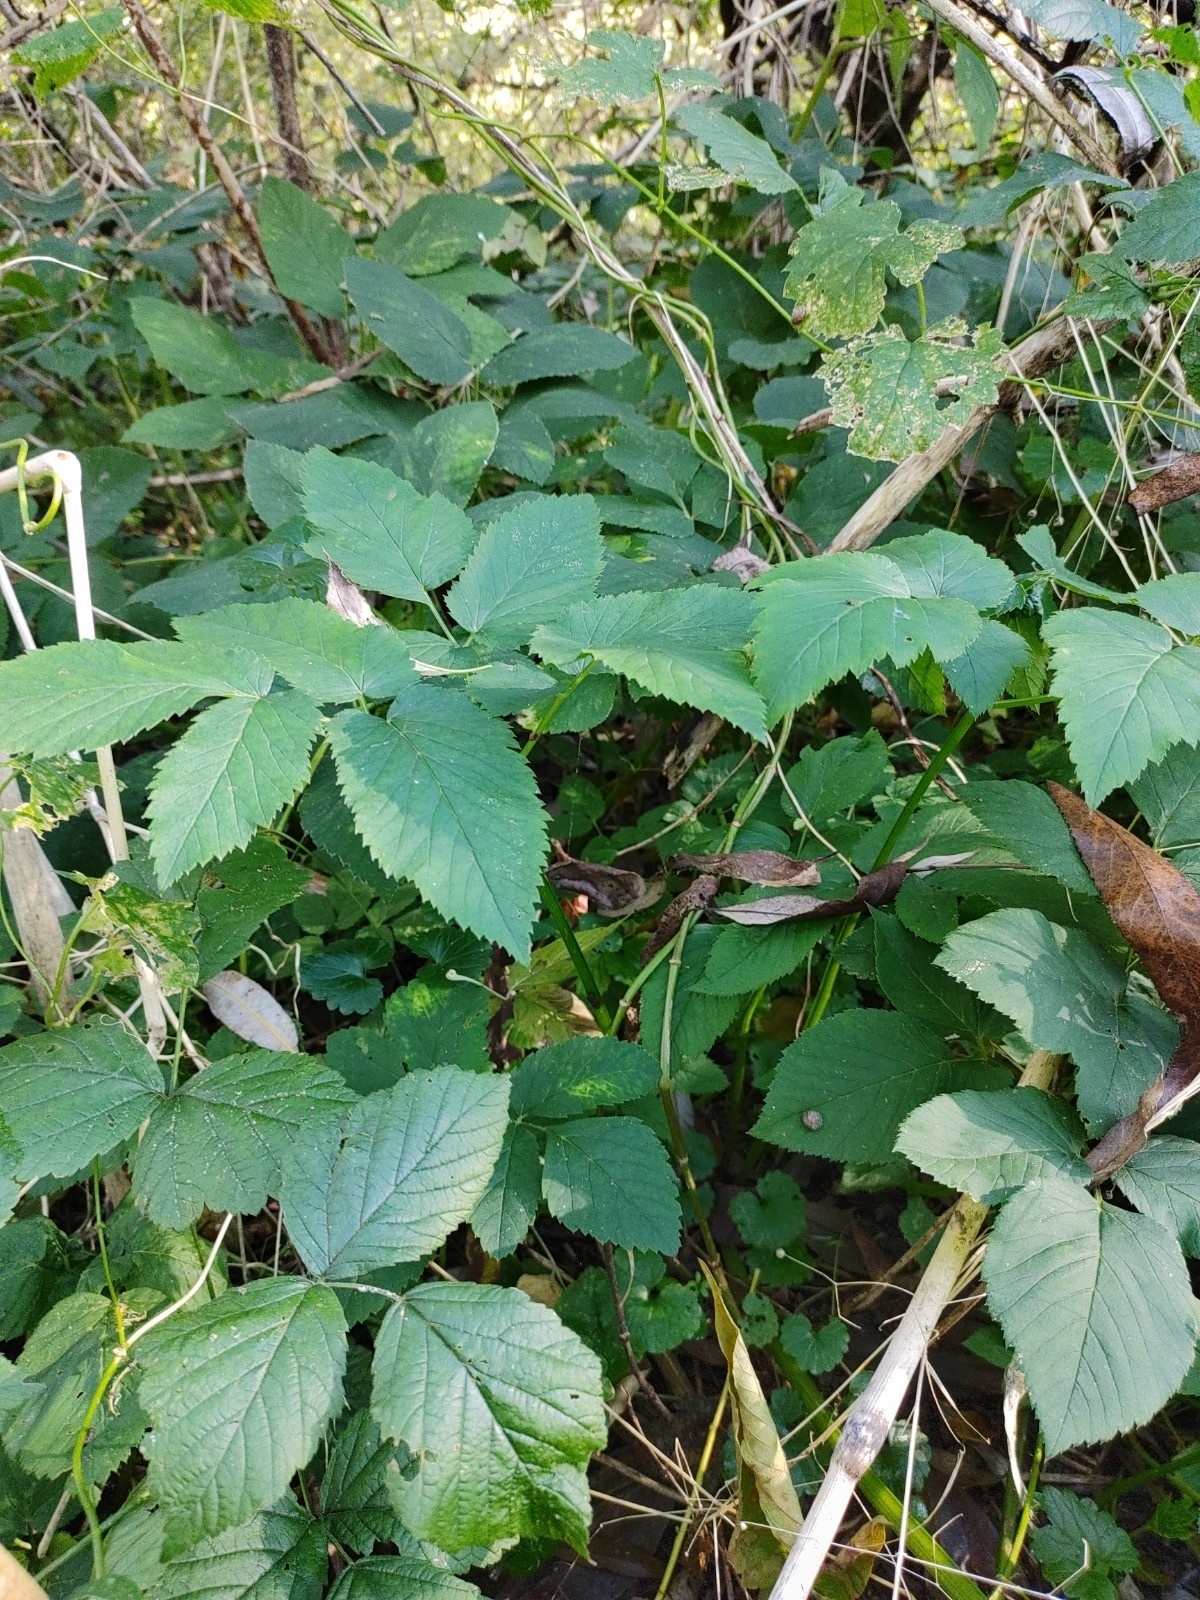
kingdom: Plantae
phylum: Tracheophyta
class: Magnoliopsida
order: Apiales
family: Apiaceae
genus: Aegopodium
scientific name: Aegopodium podagraria
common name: Ground-elder
